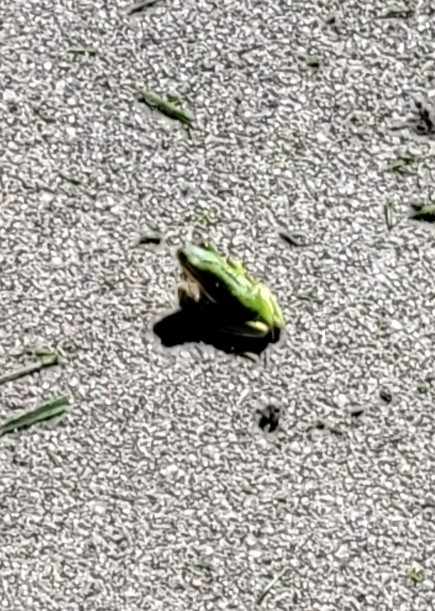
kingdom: Animalia
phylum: Chordata
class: Amphibia
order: Anura
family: Hylidae
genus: Dryophytes
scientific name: Dryophytes cinereus
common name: Green treefrog
